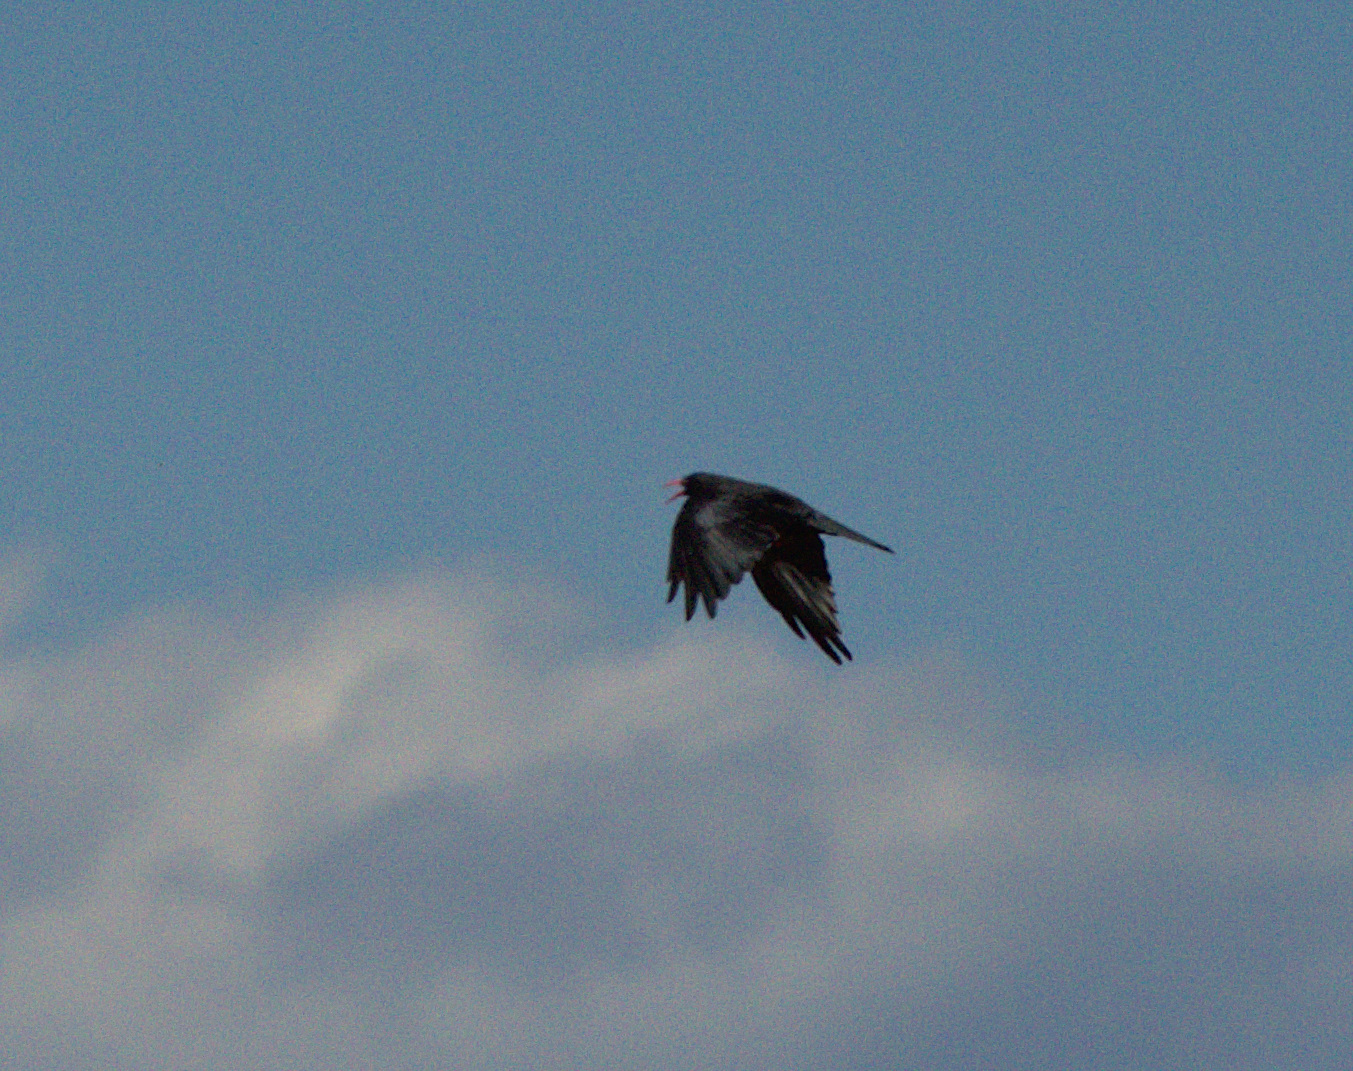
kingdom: Animalia
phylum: Chordata
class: Aves
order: Passeriformes
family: Corvidae
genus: Pyrrhocorax
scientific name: Pyrrhocorax pyrrhocorax
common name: Red-billed chough
